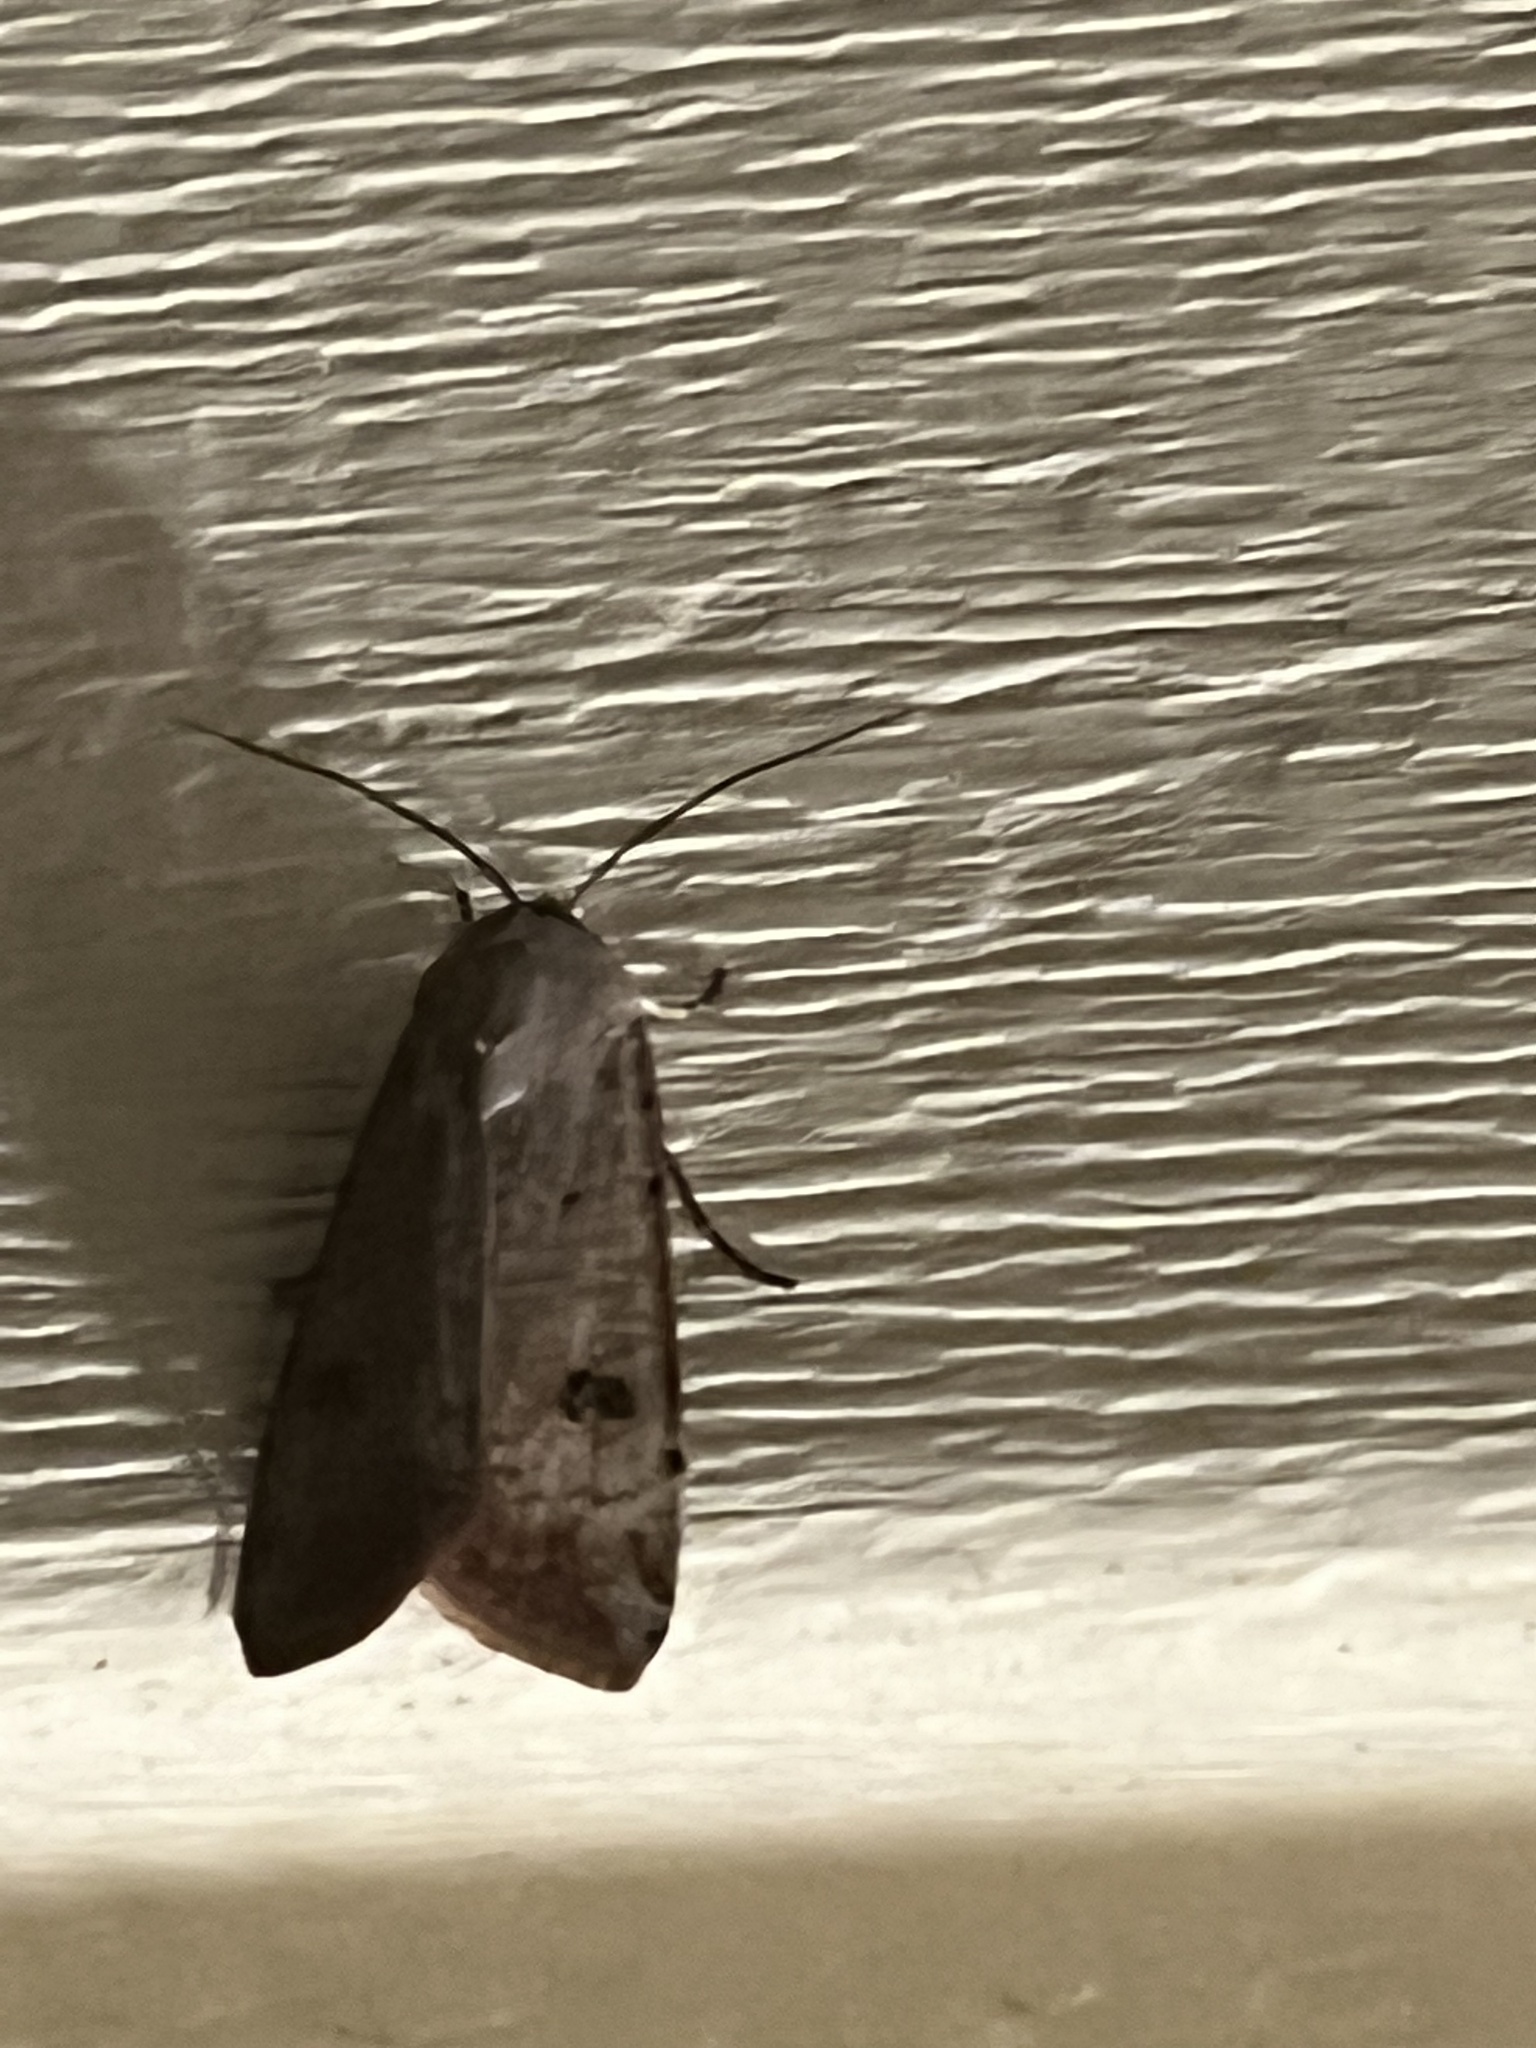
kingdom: Animalia
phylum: Arthropoda
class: Insecta
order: Lepidoptera
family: Noctuidae
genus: Anicla
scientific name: Anicla infecta
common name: Green cutworm
